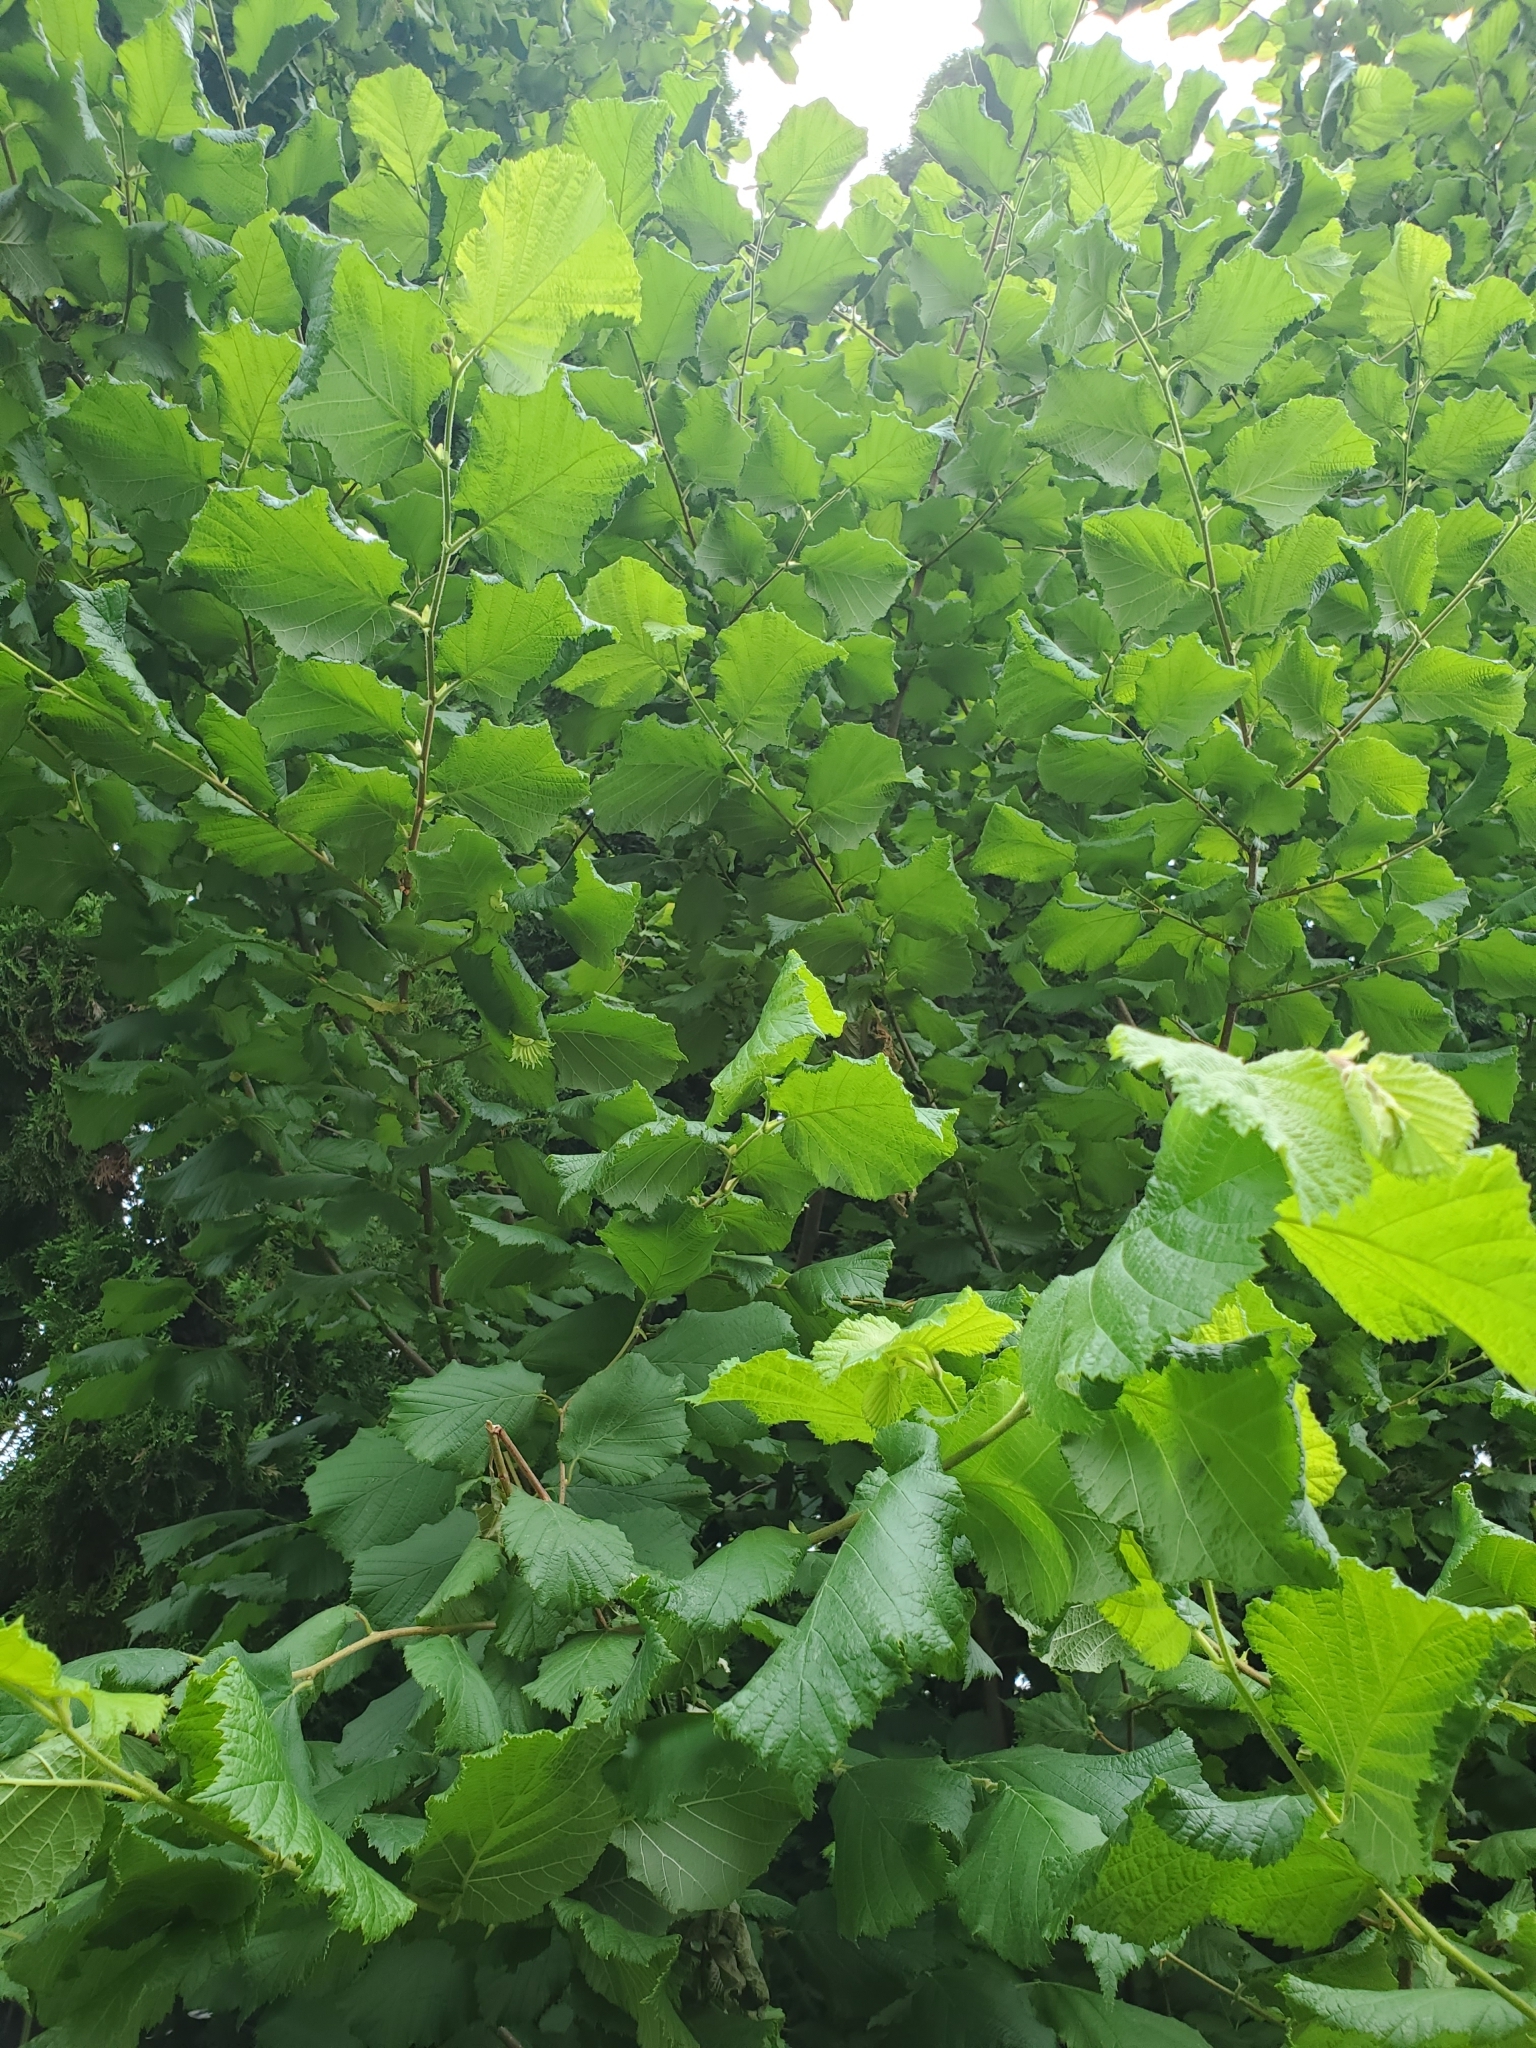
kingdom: Plantae
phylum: Tracheophyta
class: Magnoliopsida
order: Fagales
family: Betulaceae
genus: Corylus
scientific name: Corylus avellana
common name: European hazel
